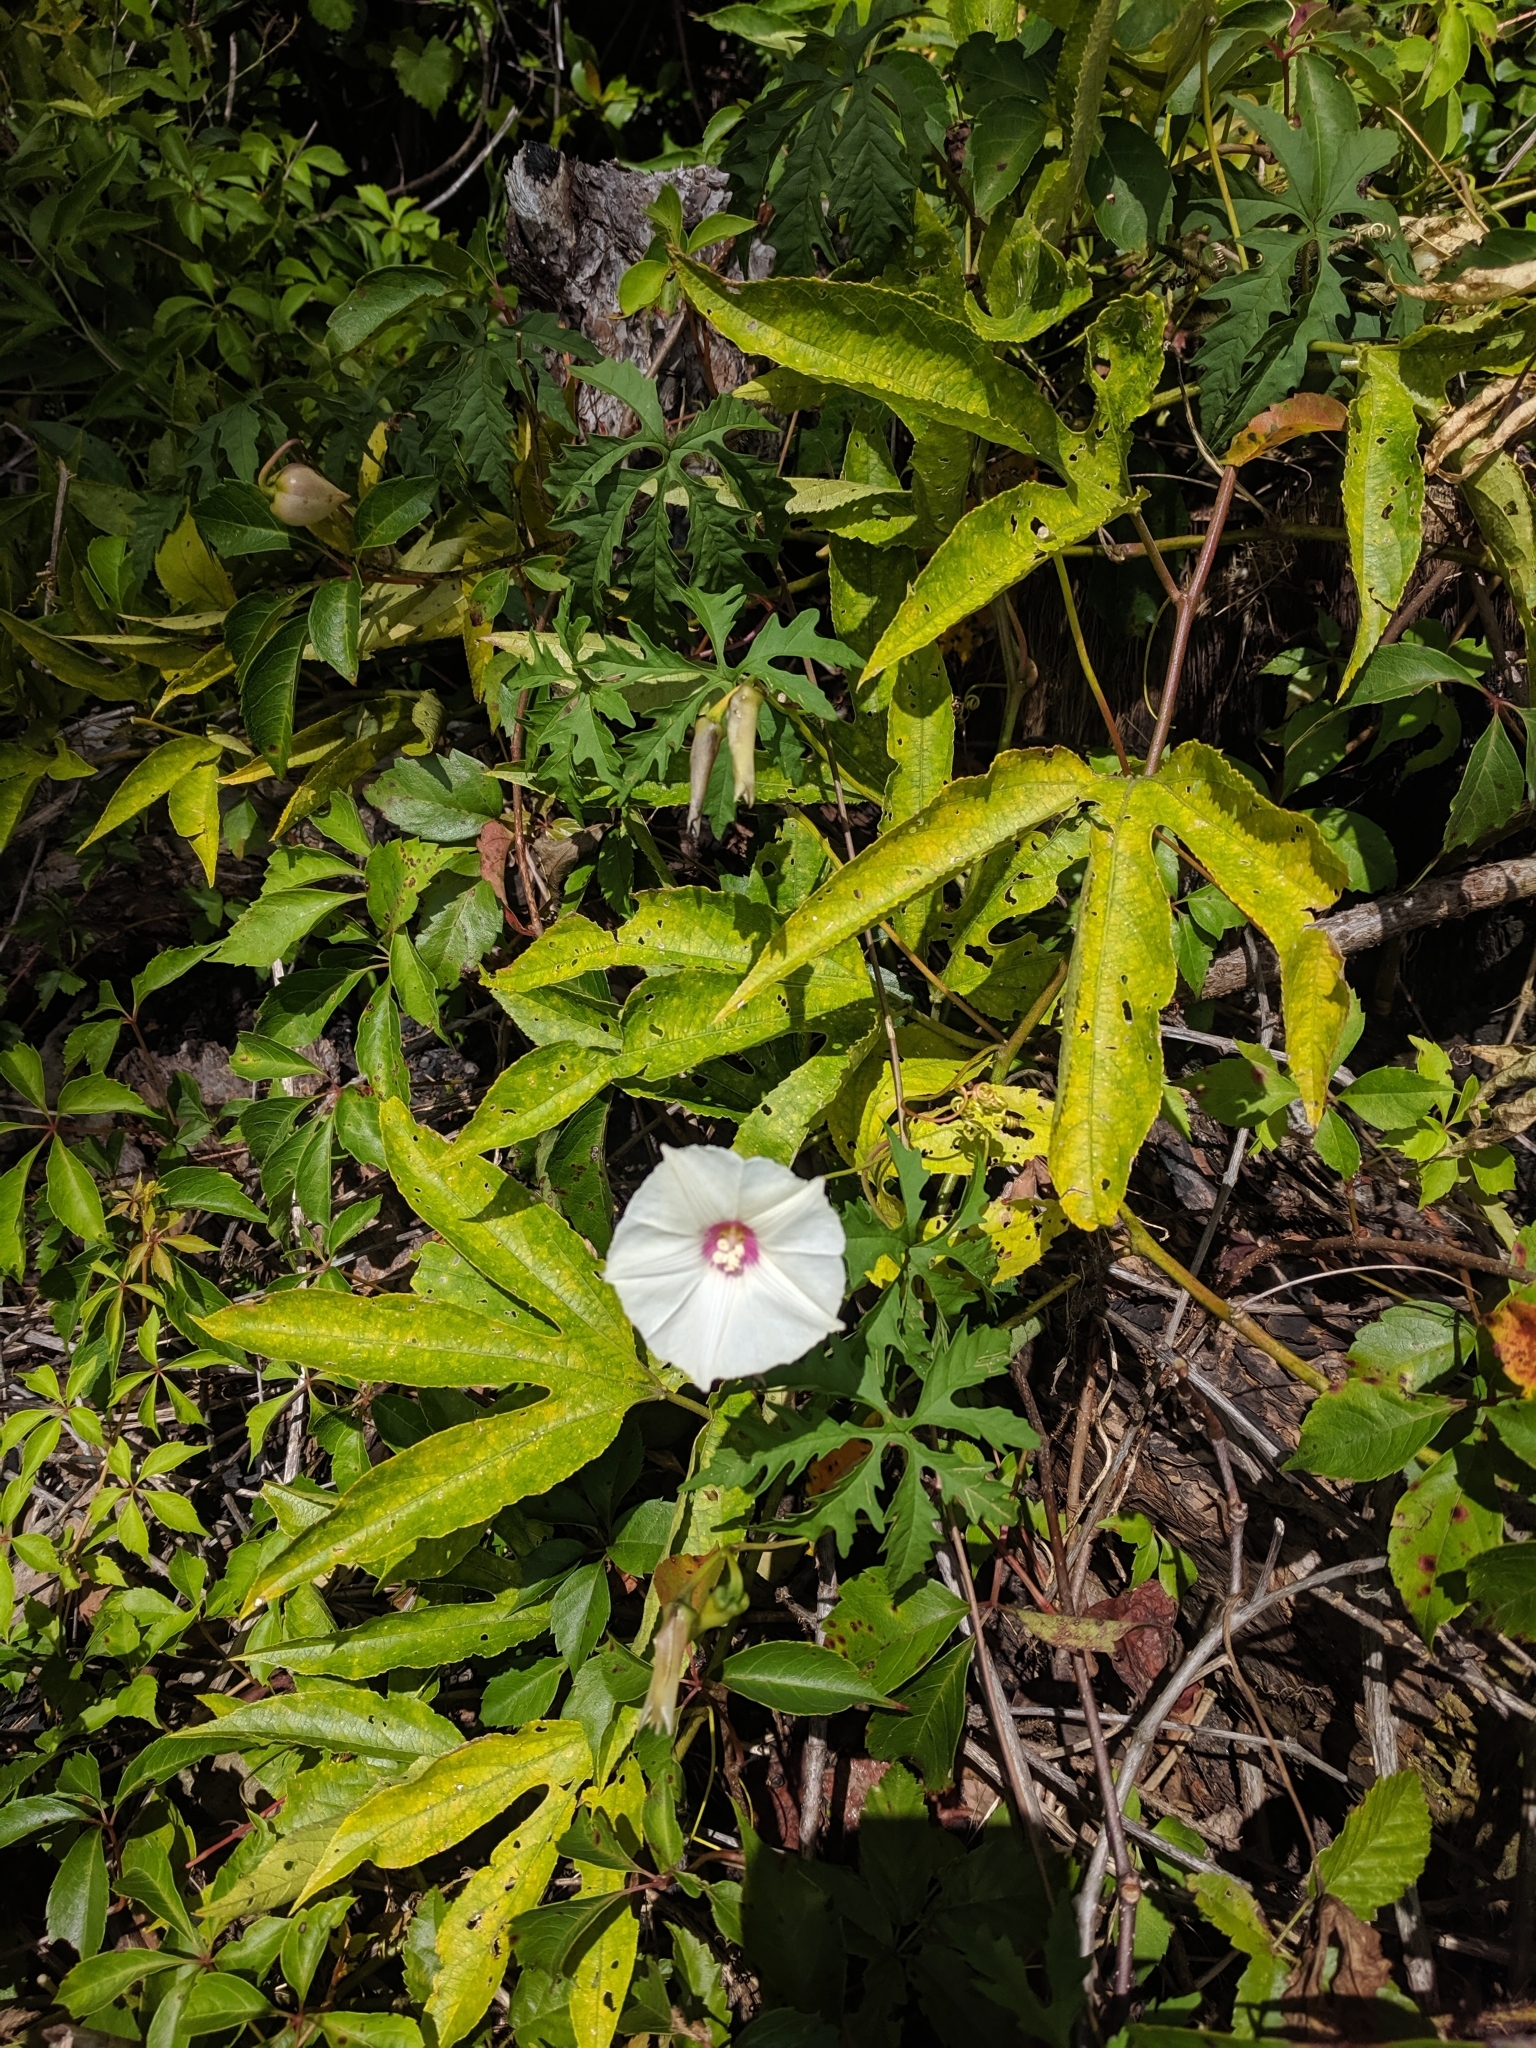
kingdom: Plantae
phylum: Tracheophyta
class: Magnoliopsida
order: Solanales
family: Convolvulaceae
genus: Distimake
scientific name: Distimake dissectus
